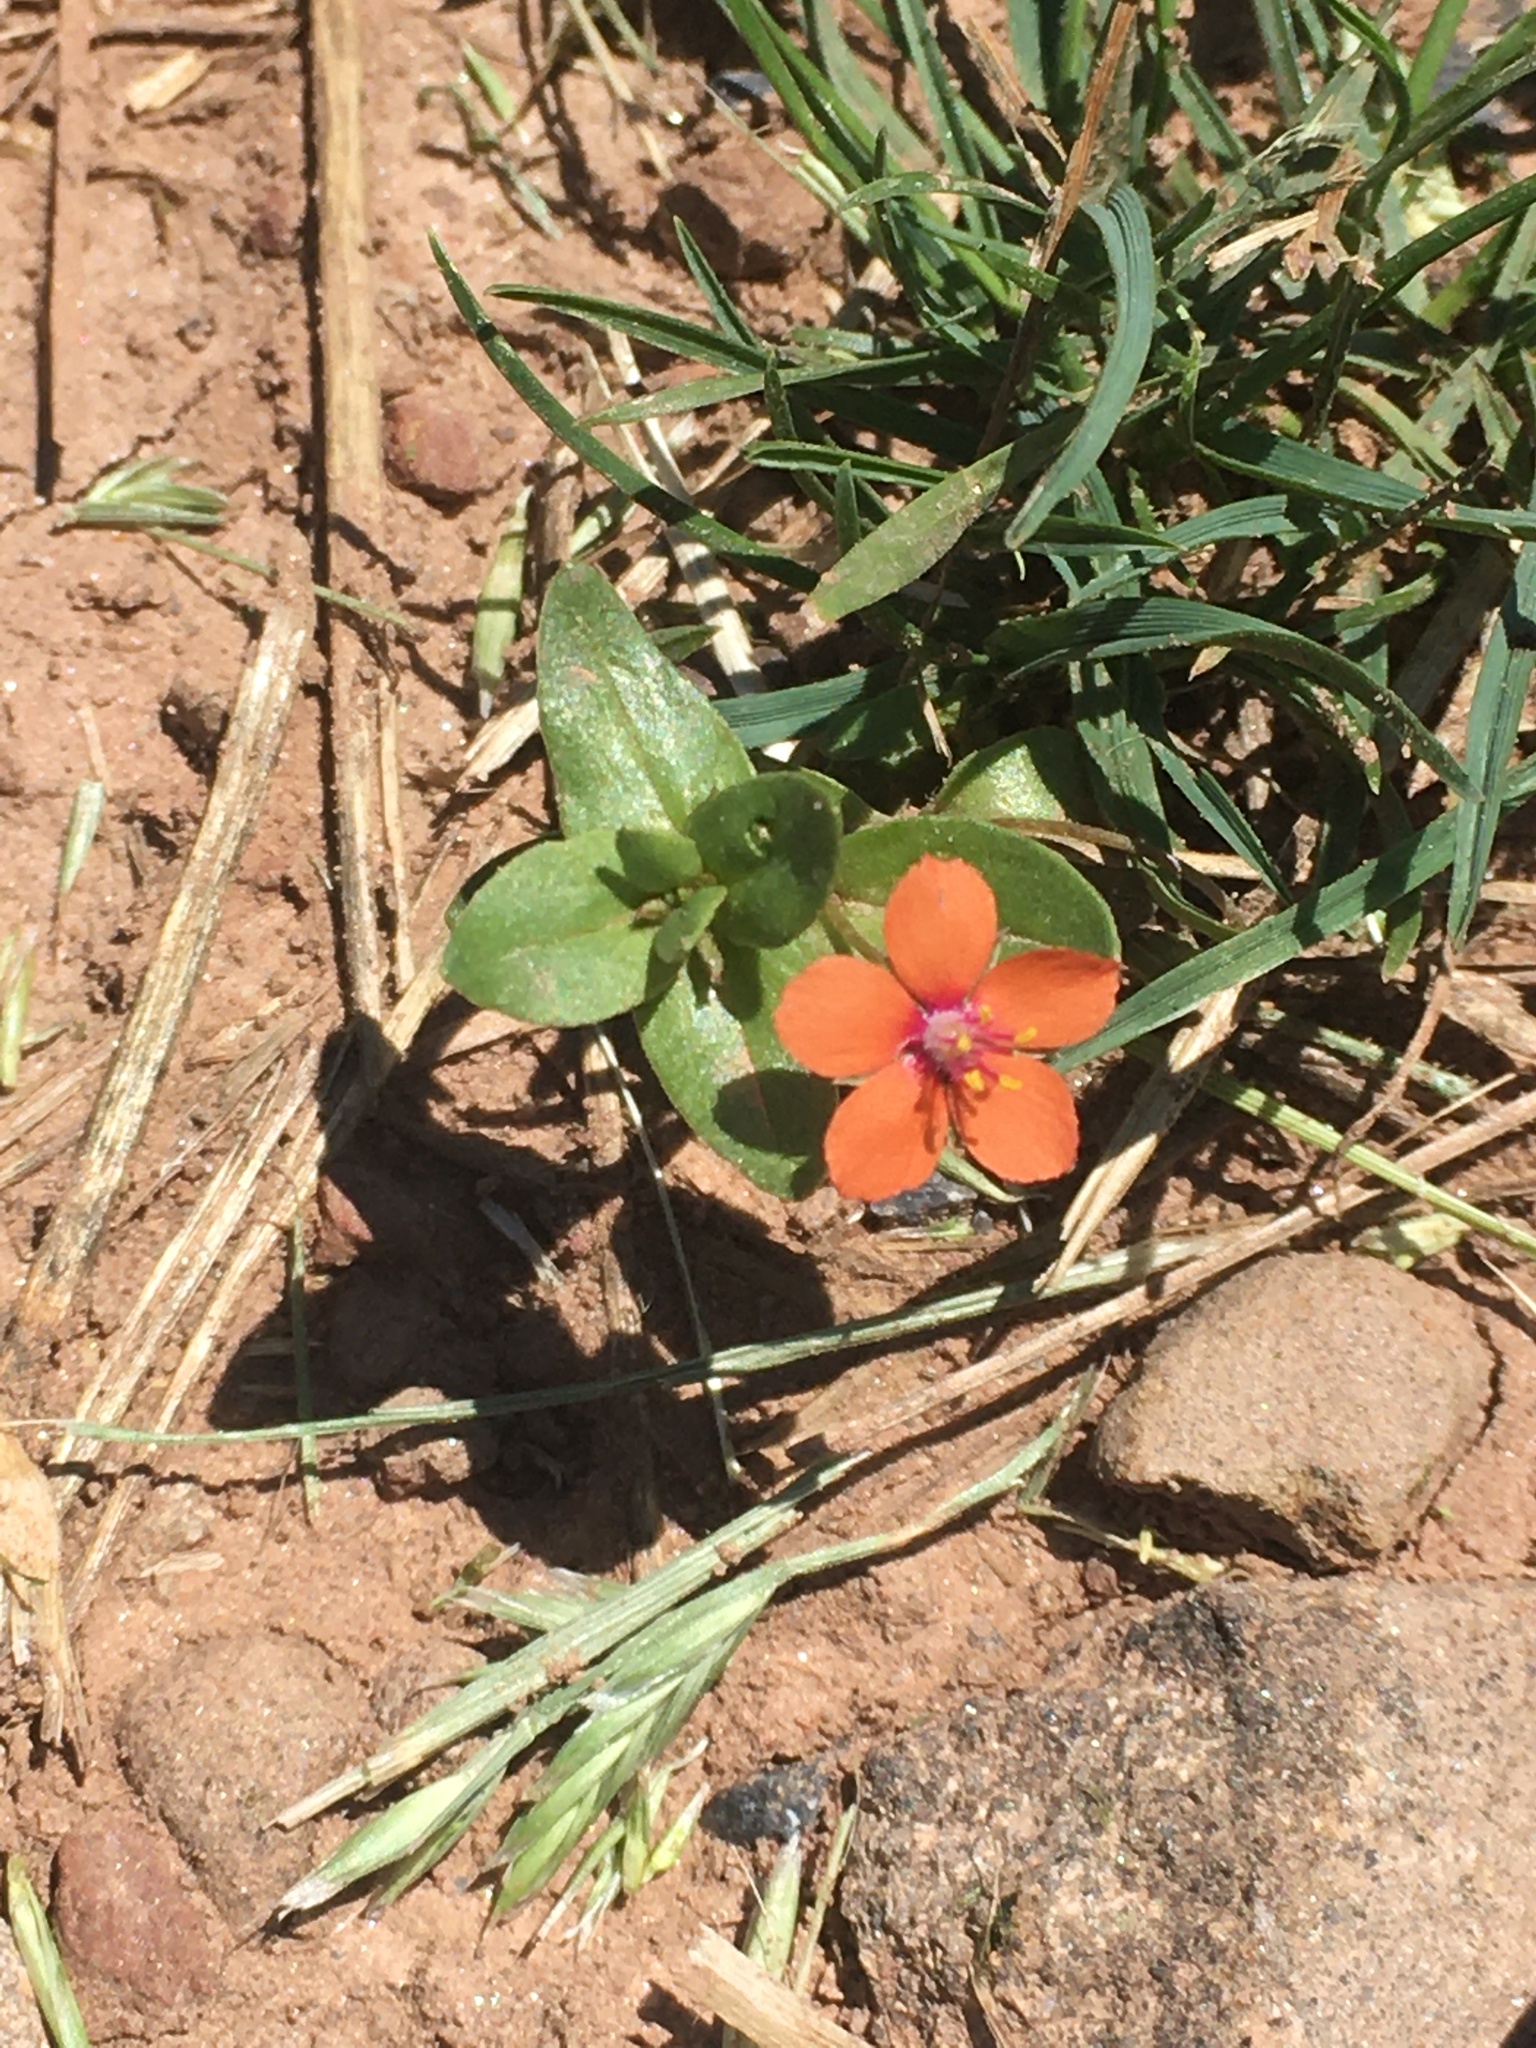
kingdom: Plantae
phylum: Tracheophyta
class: Magnoliopsida
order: Ericales
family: Primulaceae
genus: Lysimachia
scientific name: Lysimachia arvensis
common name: Scarlet pimpernel
